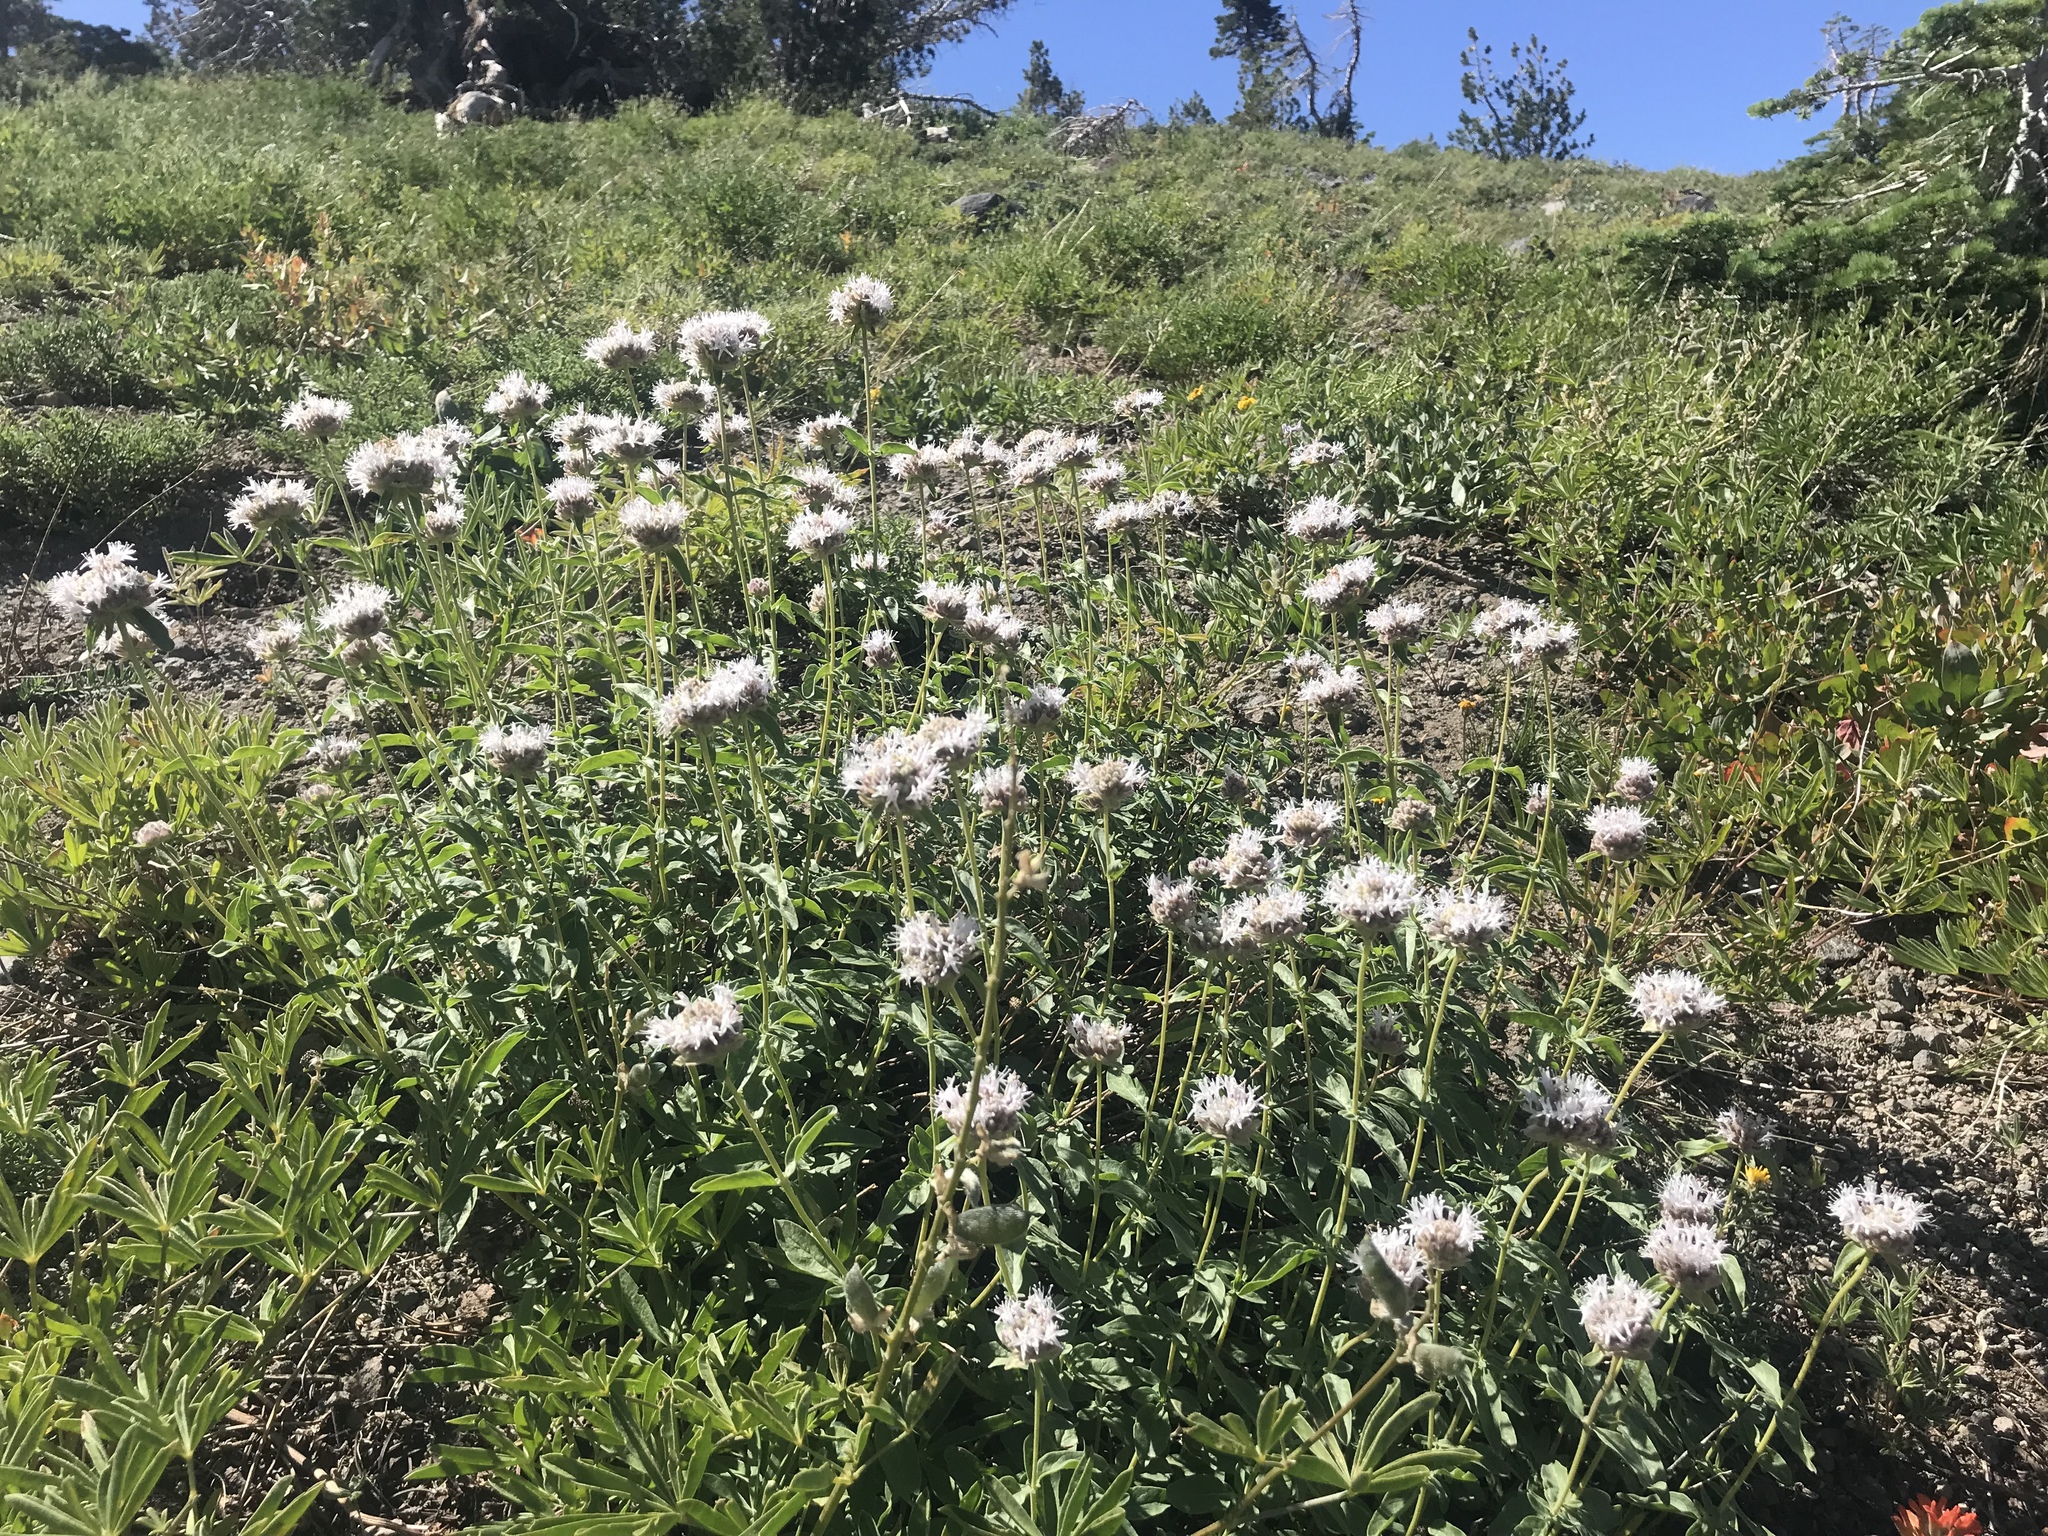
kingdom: Plantae
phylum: Tracheophyta
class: Magnoliopsida
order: Lamiales
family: Lamiaceae
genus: Monardella
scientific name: Monardella odoratissima
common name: Pacific monardella
